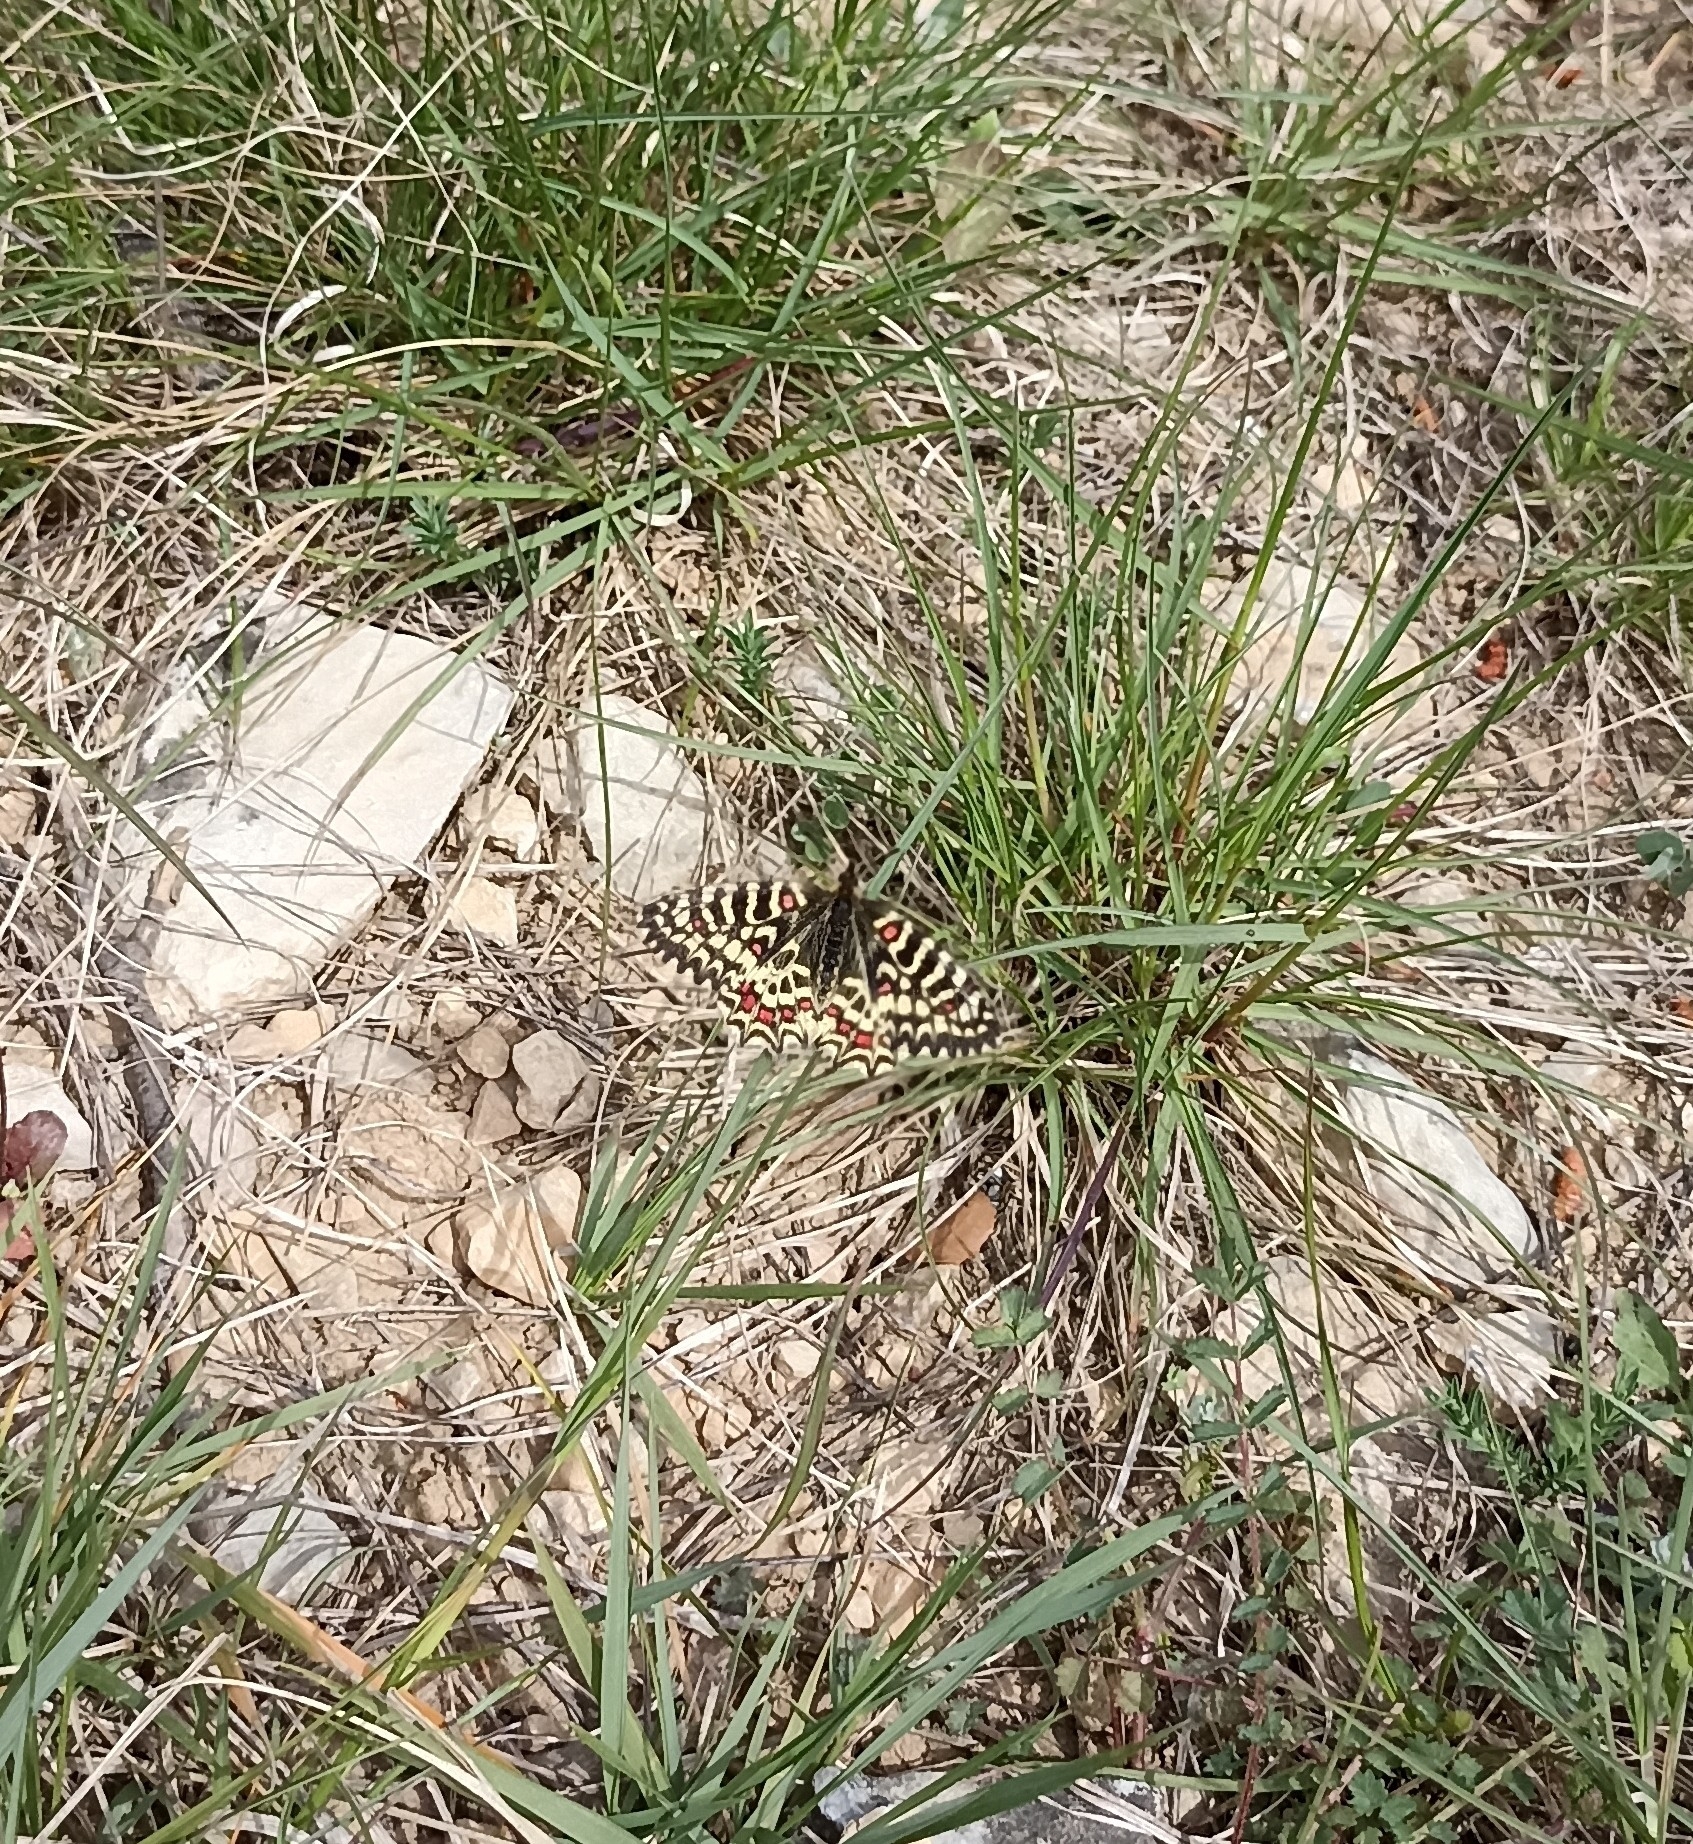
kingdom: Animalia
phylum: Arthropoda
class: Insecta
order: Lepidoptera
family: Papilionidae
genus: Zerynthia
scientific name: Zerynthia rumina
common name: Spanish festoon
